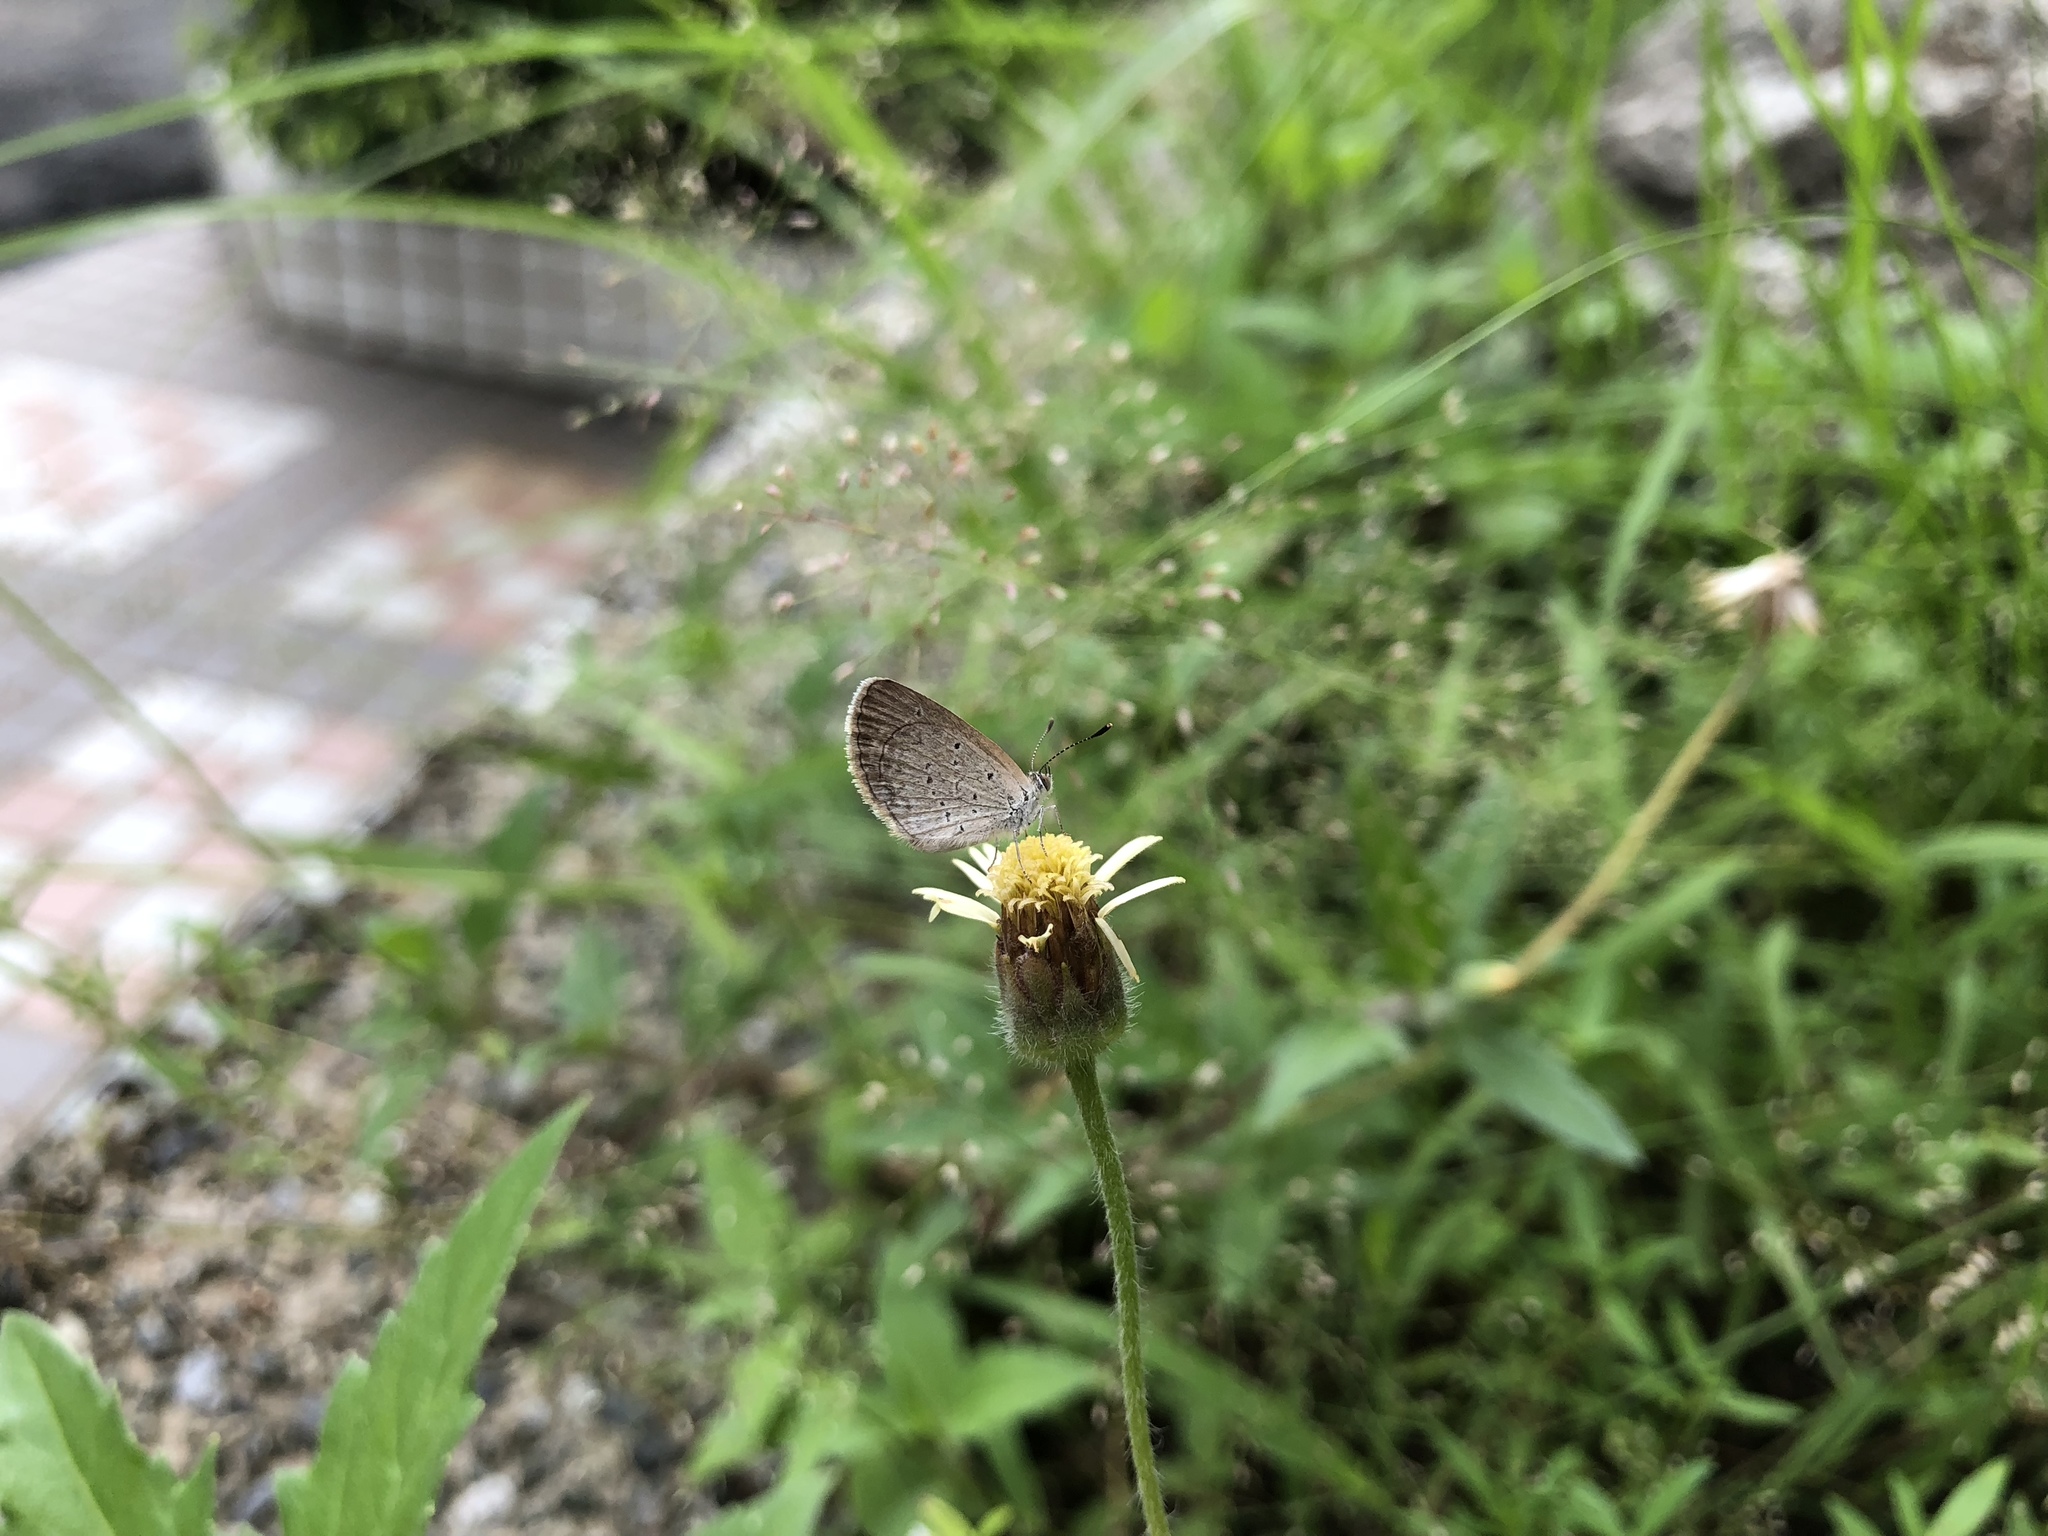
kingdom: Animalia
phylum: Arthropoda
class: Insecta
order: Lepidoptera
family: Lycaenidae
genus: Zizina
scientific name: Zizina otis
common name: Lesser grass blue
